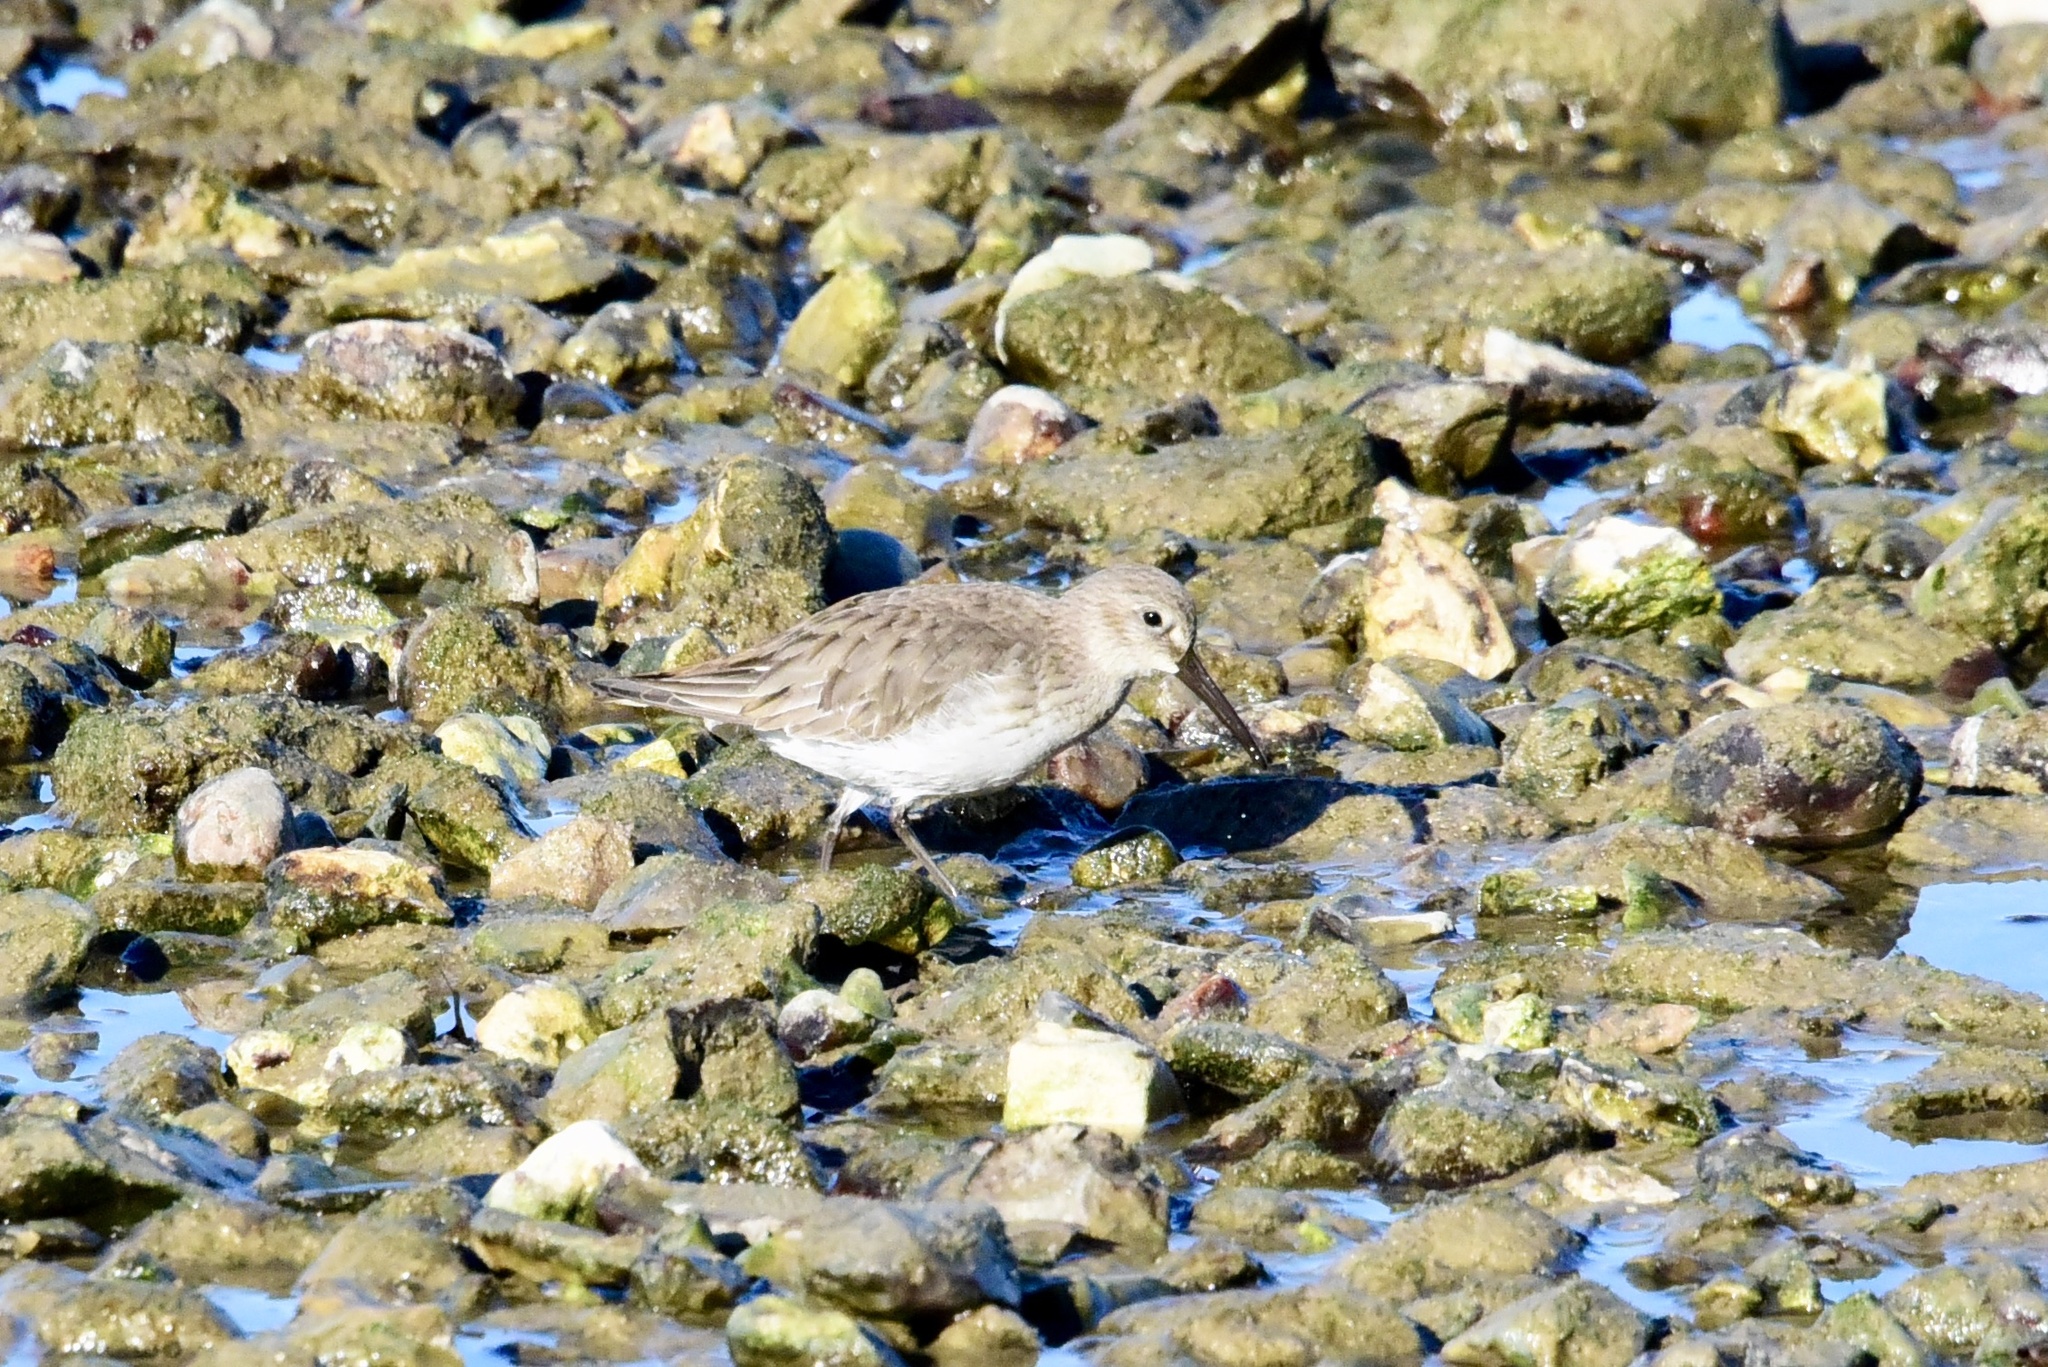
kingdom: Animalia
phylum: Chordata
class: Aves
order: Charadriiformes
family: Scolopacidae
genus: Calidris
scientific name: Calidris alpina
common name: Dunlin
